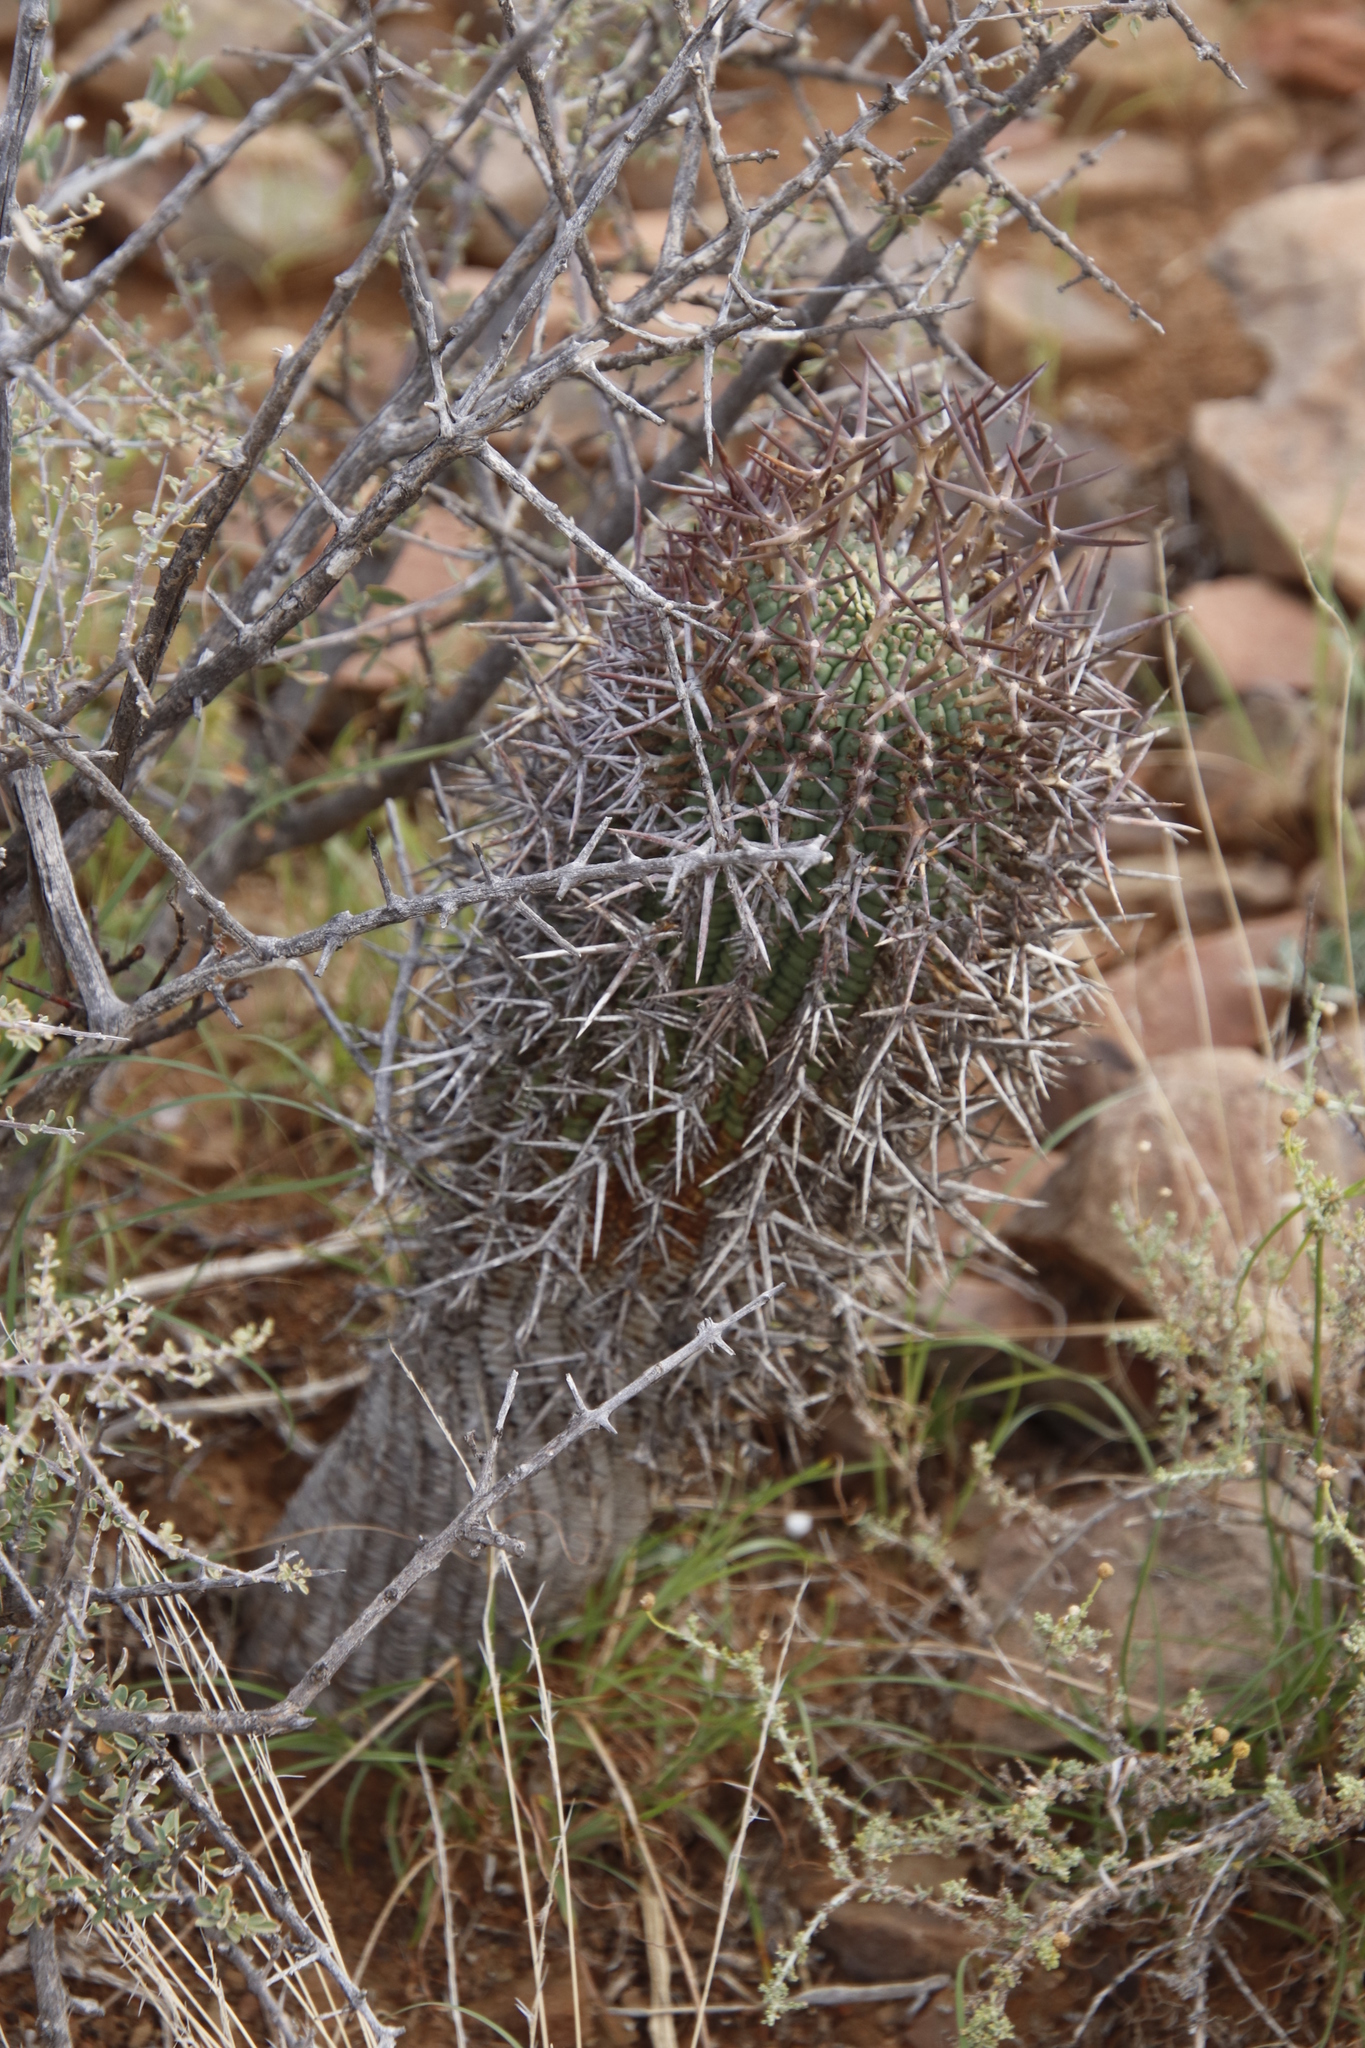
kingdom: Plantae
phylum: Tracheophyta
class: Magnoliopsida
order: Malpighiales
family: Euphorbiaceae
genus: Euphorbia
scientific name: Euphorbia stellispina
